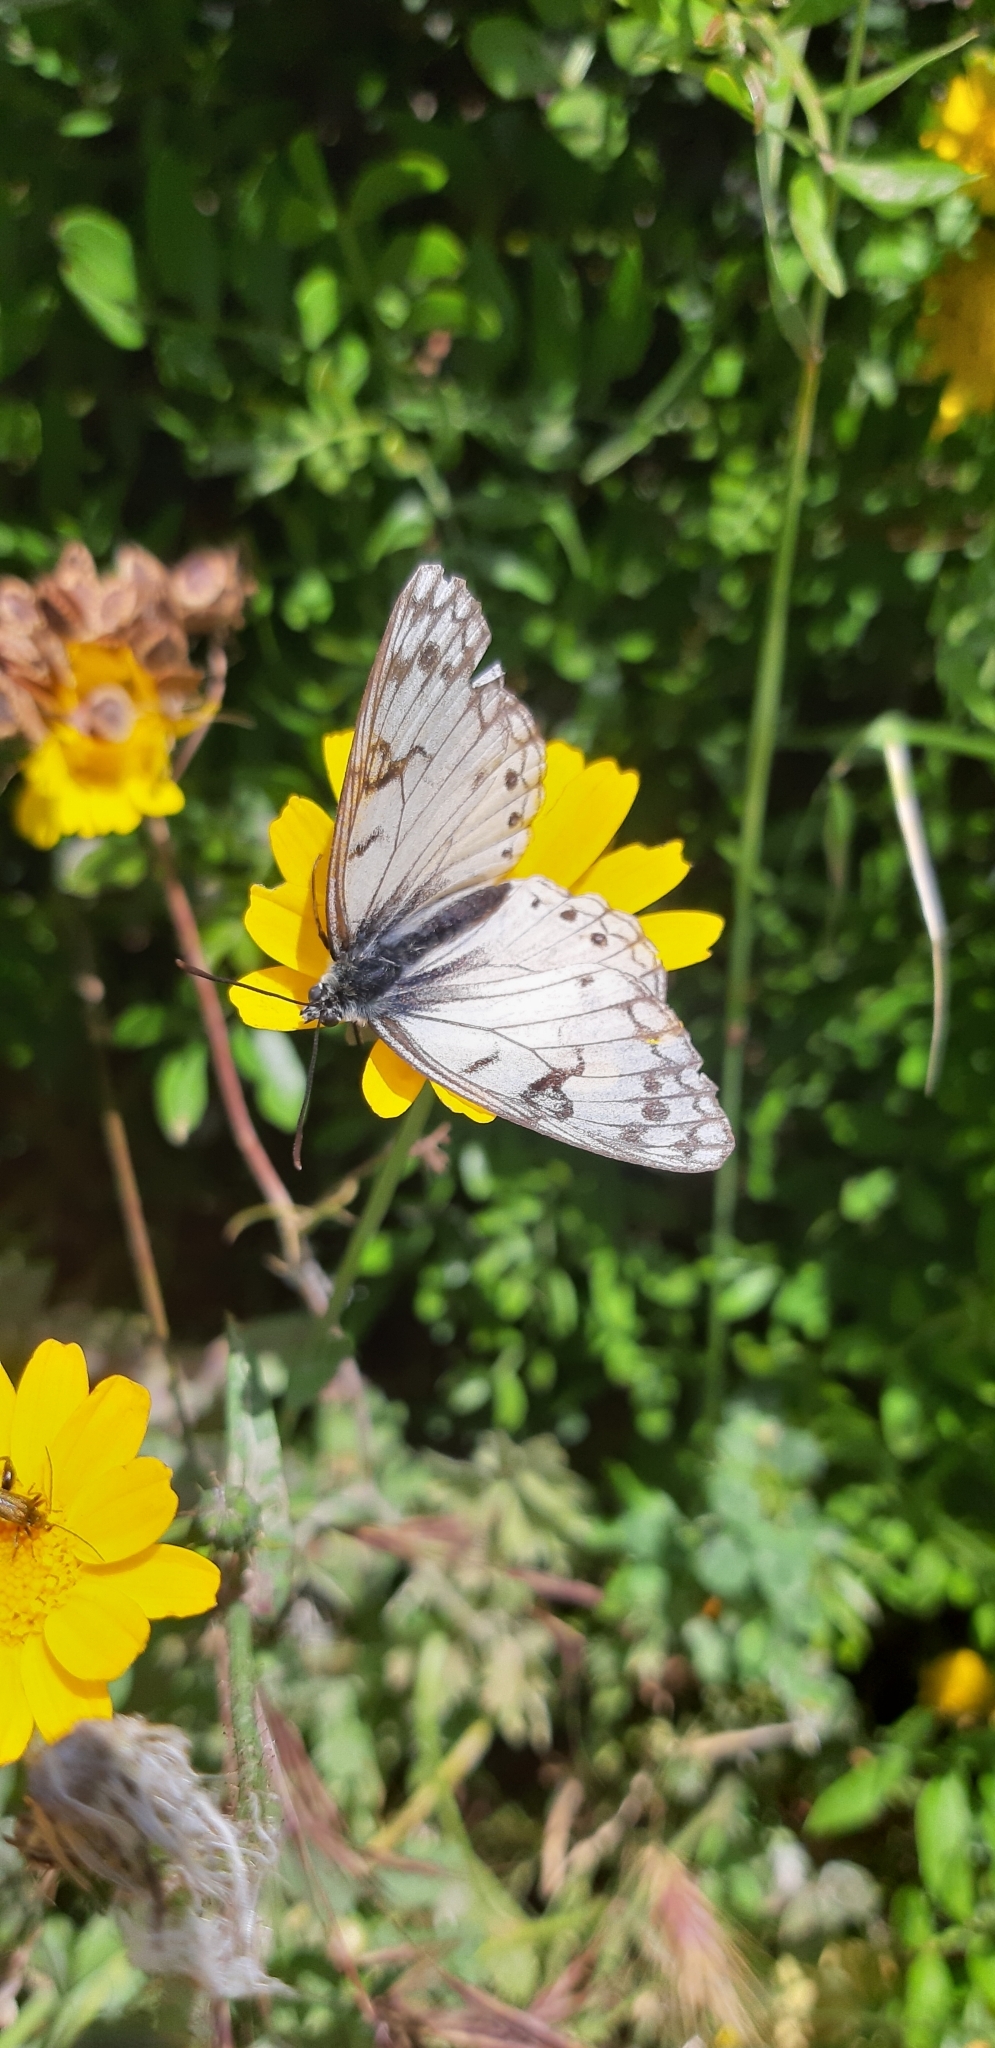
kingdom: Animalia
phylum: Arthropoda
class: Insecta
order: Lepidoptera
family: Nymphalidae
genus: Melanargia
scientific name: Melanargia arge
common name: Italian marbled white
